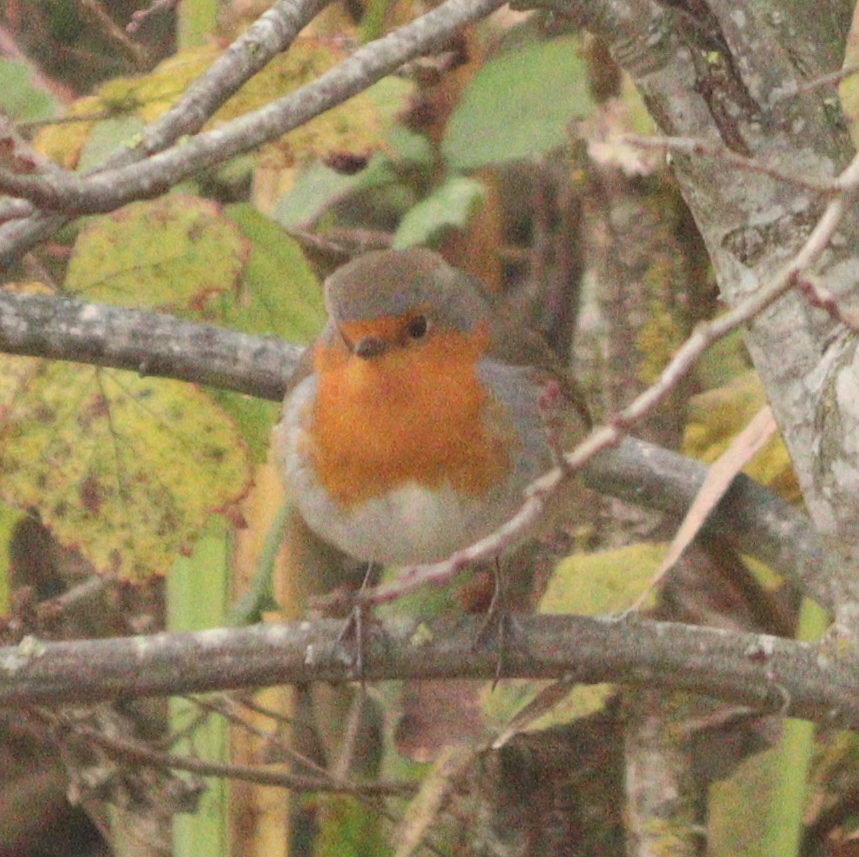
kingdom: Animalia
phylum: Chordata
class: Aves
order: Passeriformes
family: Muscicapidae
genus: Erithacus
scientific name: Erithacus rubecula
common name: European robin
